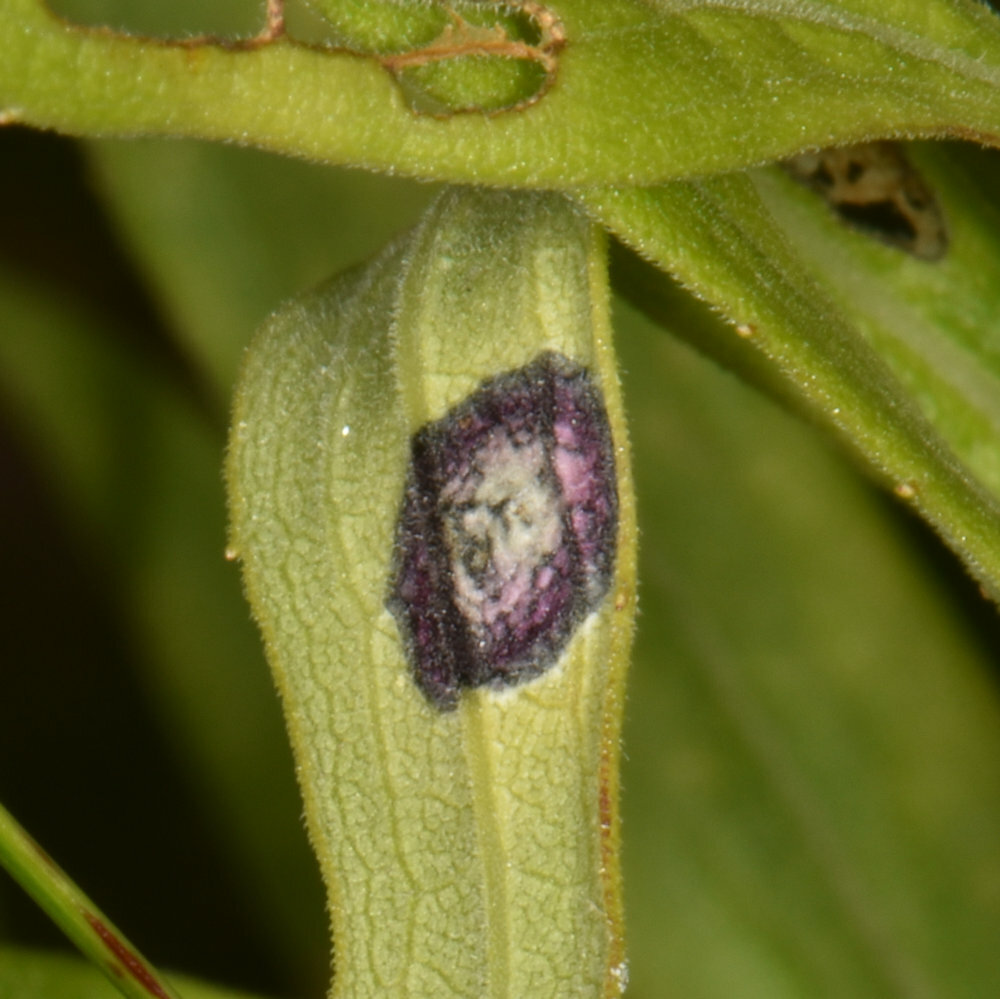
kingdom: Animalia
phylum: Arthropoda
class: Insecta
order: Diptera
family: Cecidomyiidae
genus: Asteromyia
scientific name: Asteromyia carbonifera
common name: Carbonifera goldenrod gall midge
